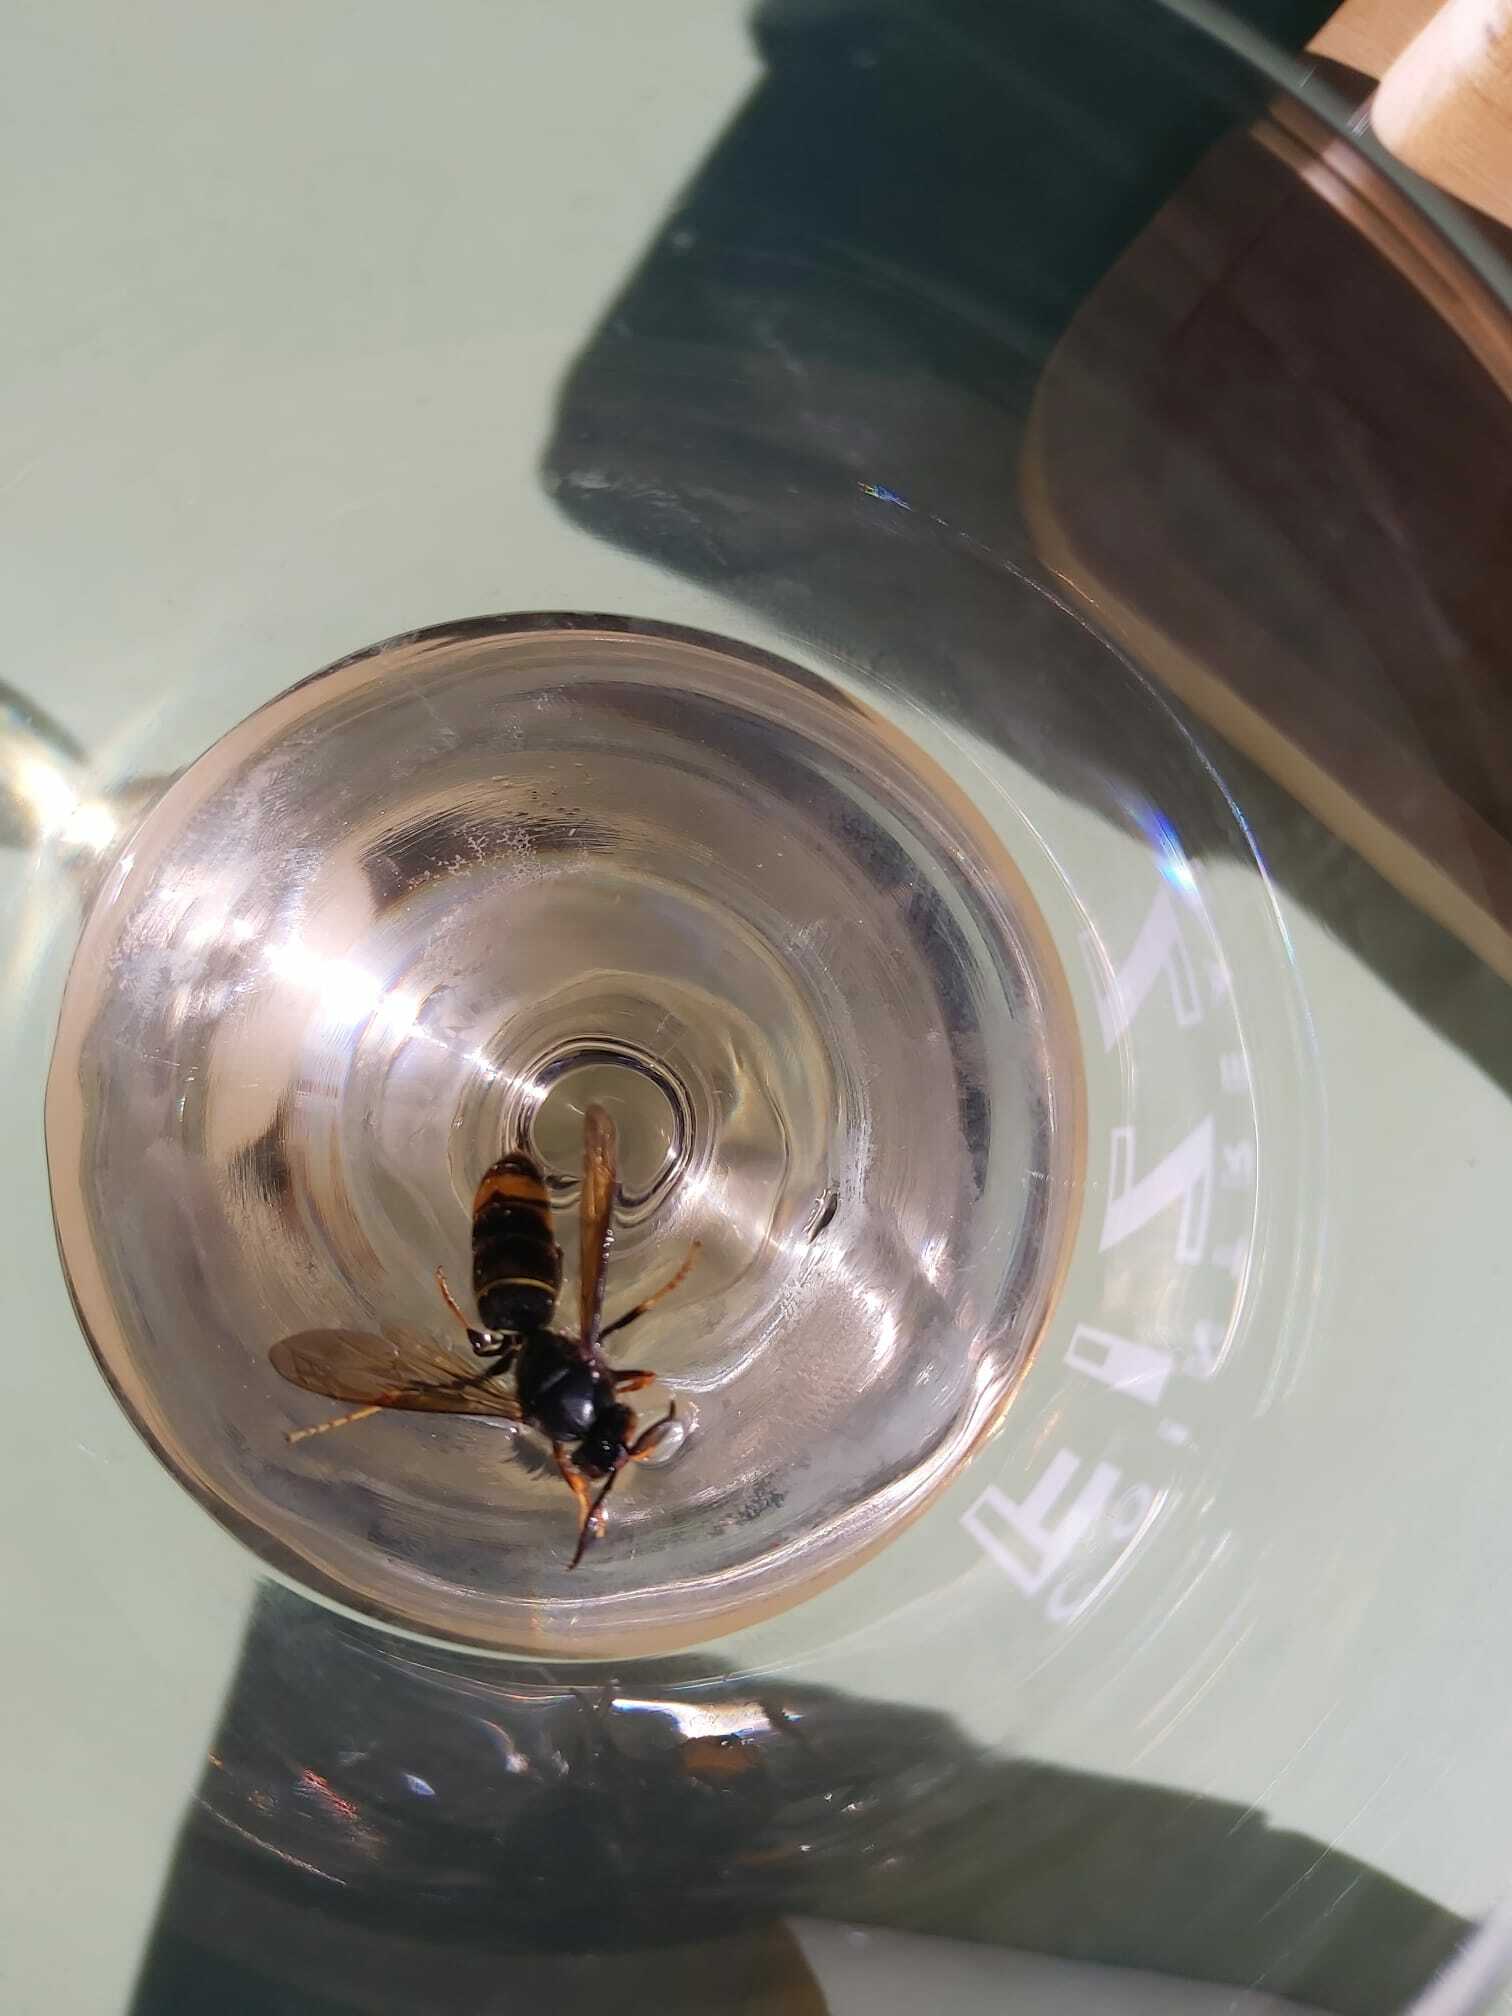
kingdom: Animalia
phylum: Arthropoda
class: Insecta
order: Hymenoptera
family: Vespidae
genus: Vespa
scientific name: Vespa velutina
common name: Asian hornet
